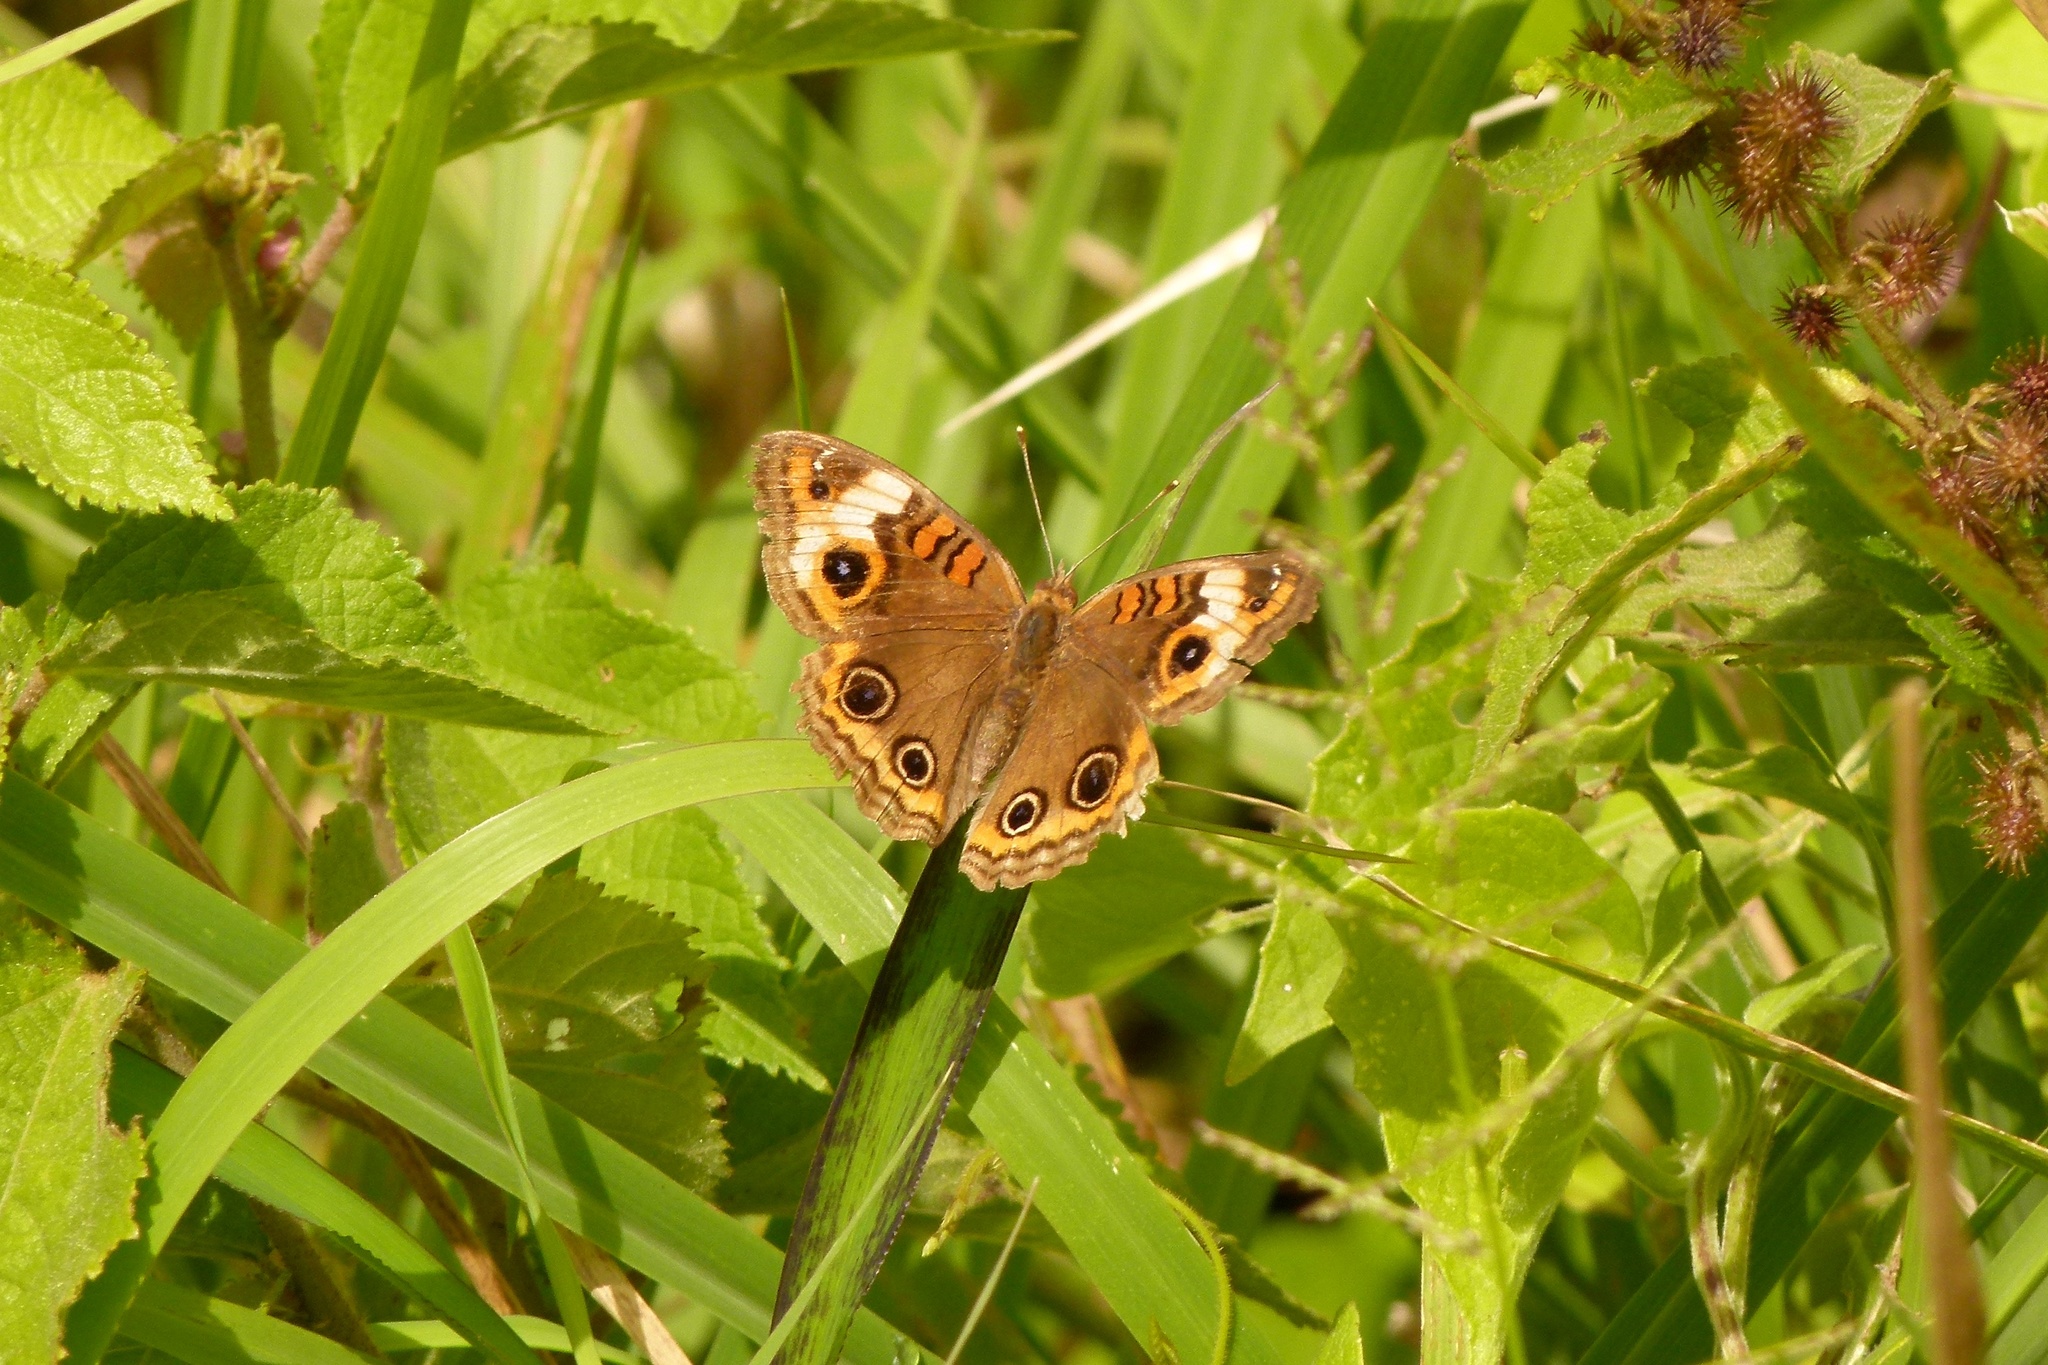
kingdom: Animalia
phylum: Arthropoda
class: Insecta
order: Lepidoptera
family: Nymphalidae
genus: Junonia
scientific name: Junonia lavinia
